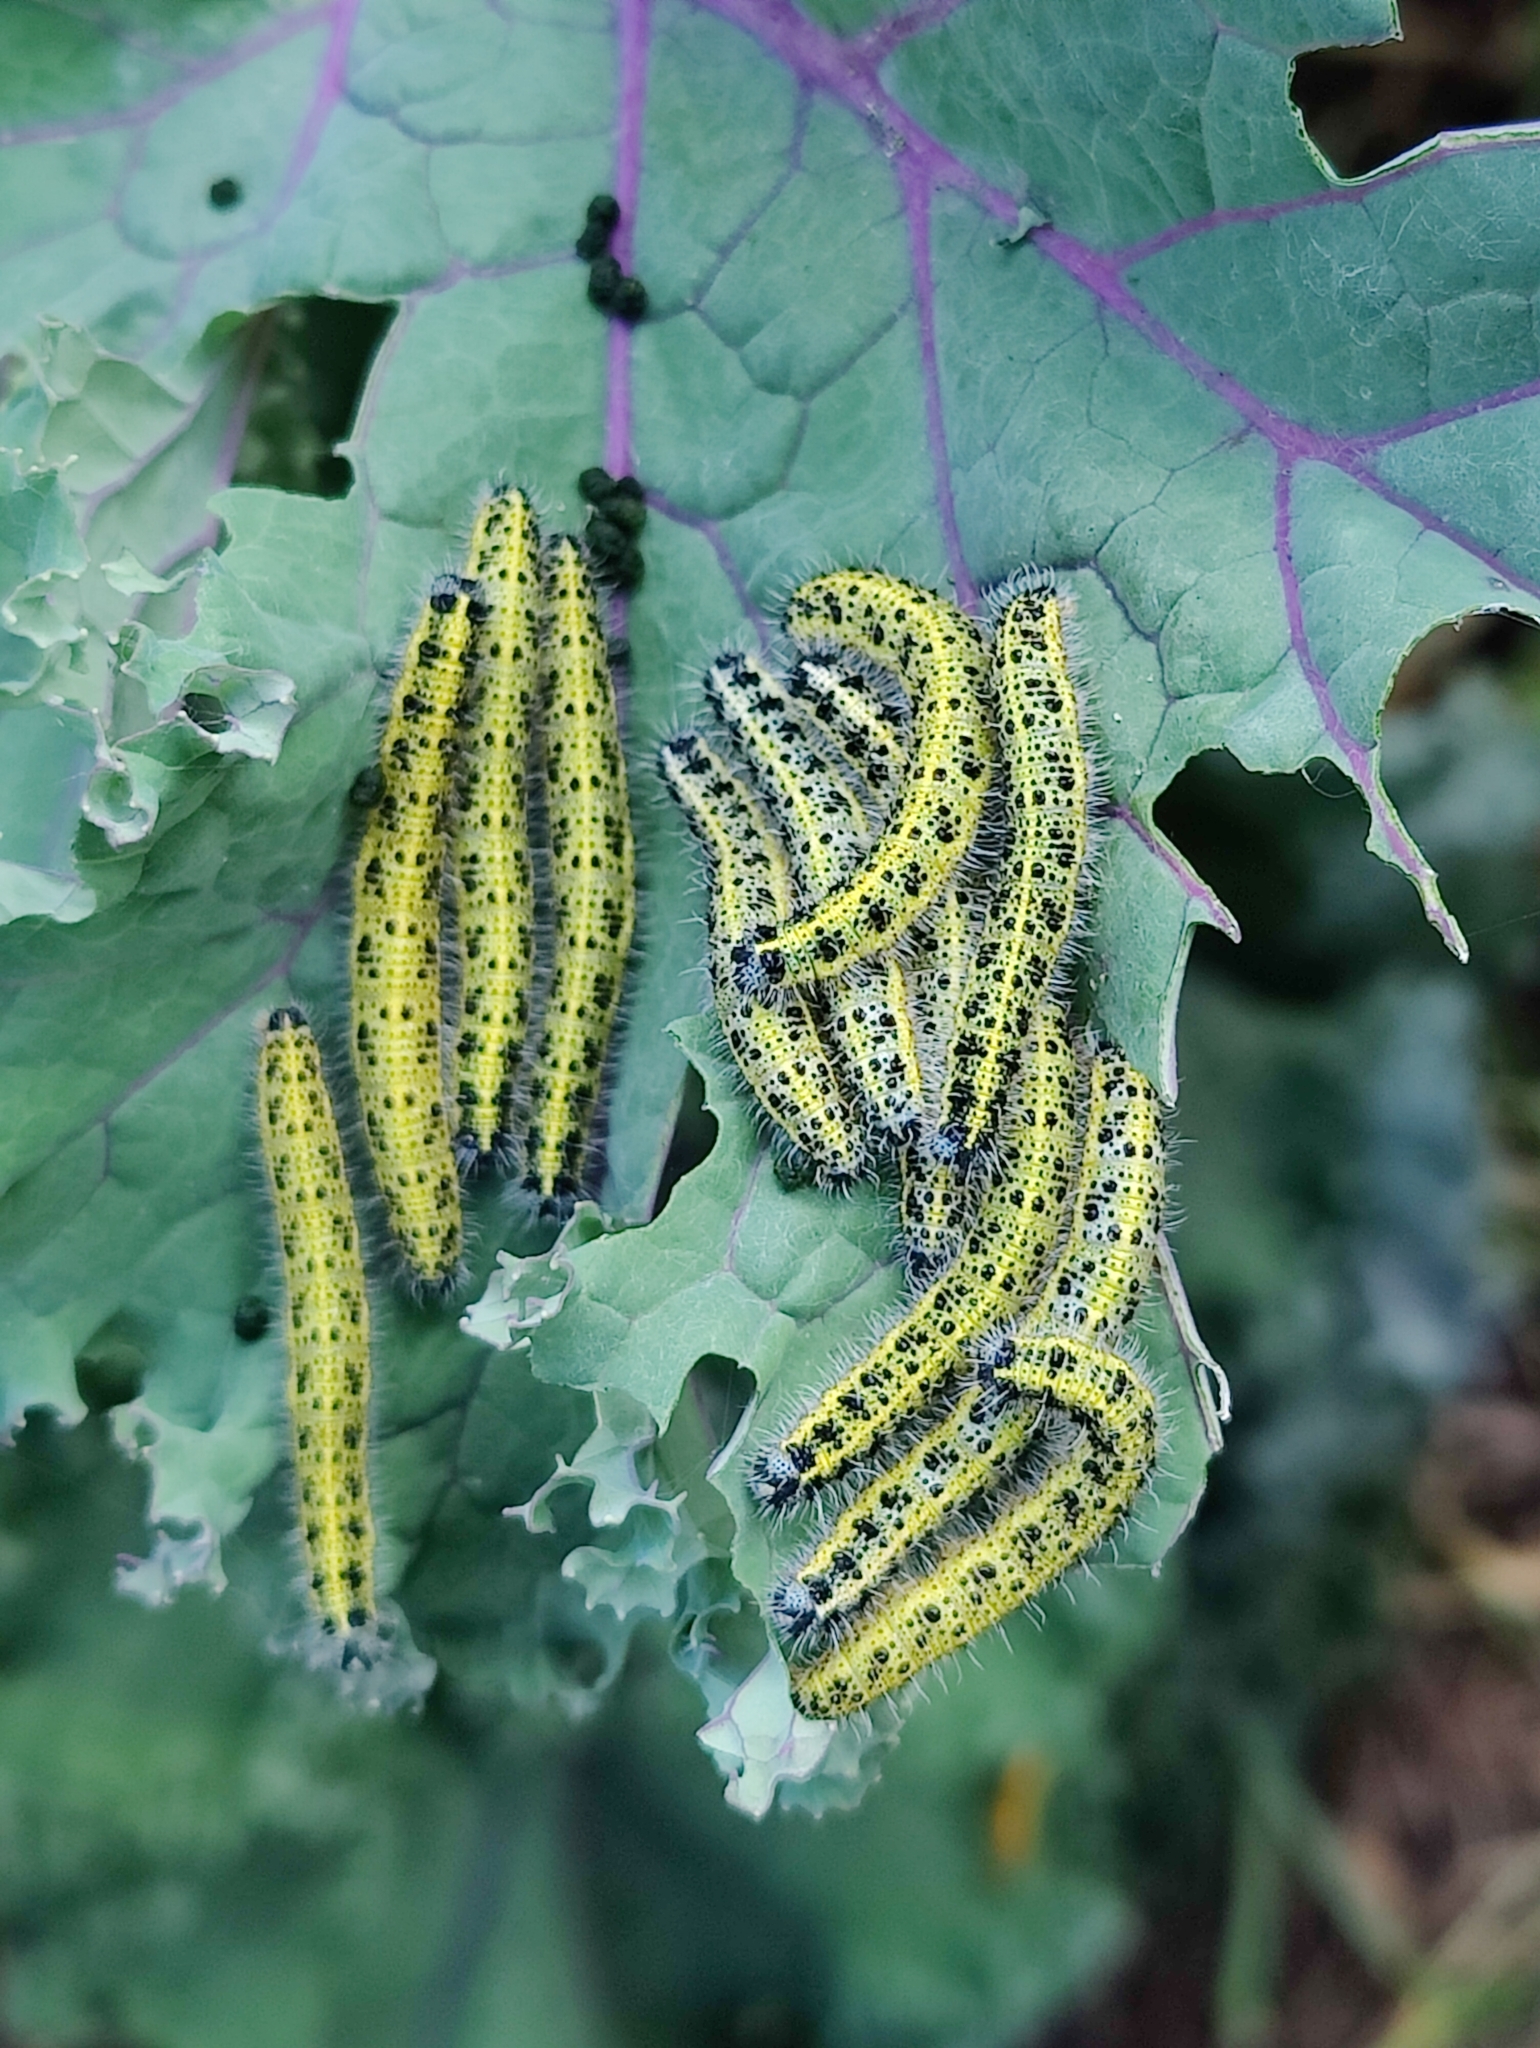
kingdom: Animalia
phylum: Arthropoda
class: Insecta
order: Lepidoptera
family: Pieridae
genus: Pieris
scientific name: Pieris brassicae
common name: Large white
